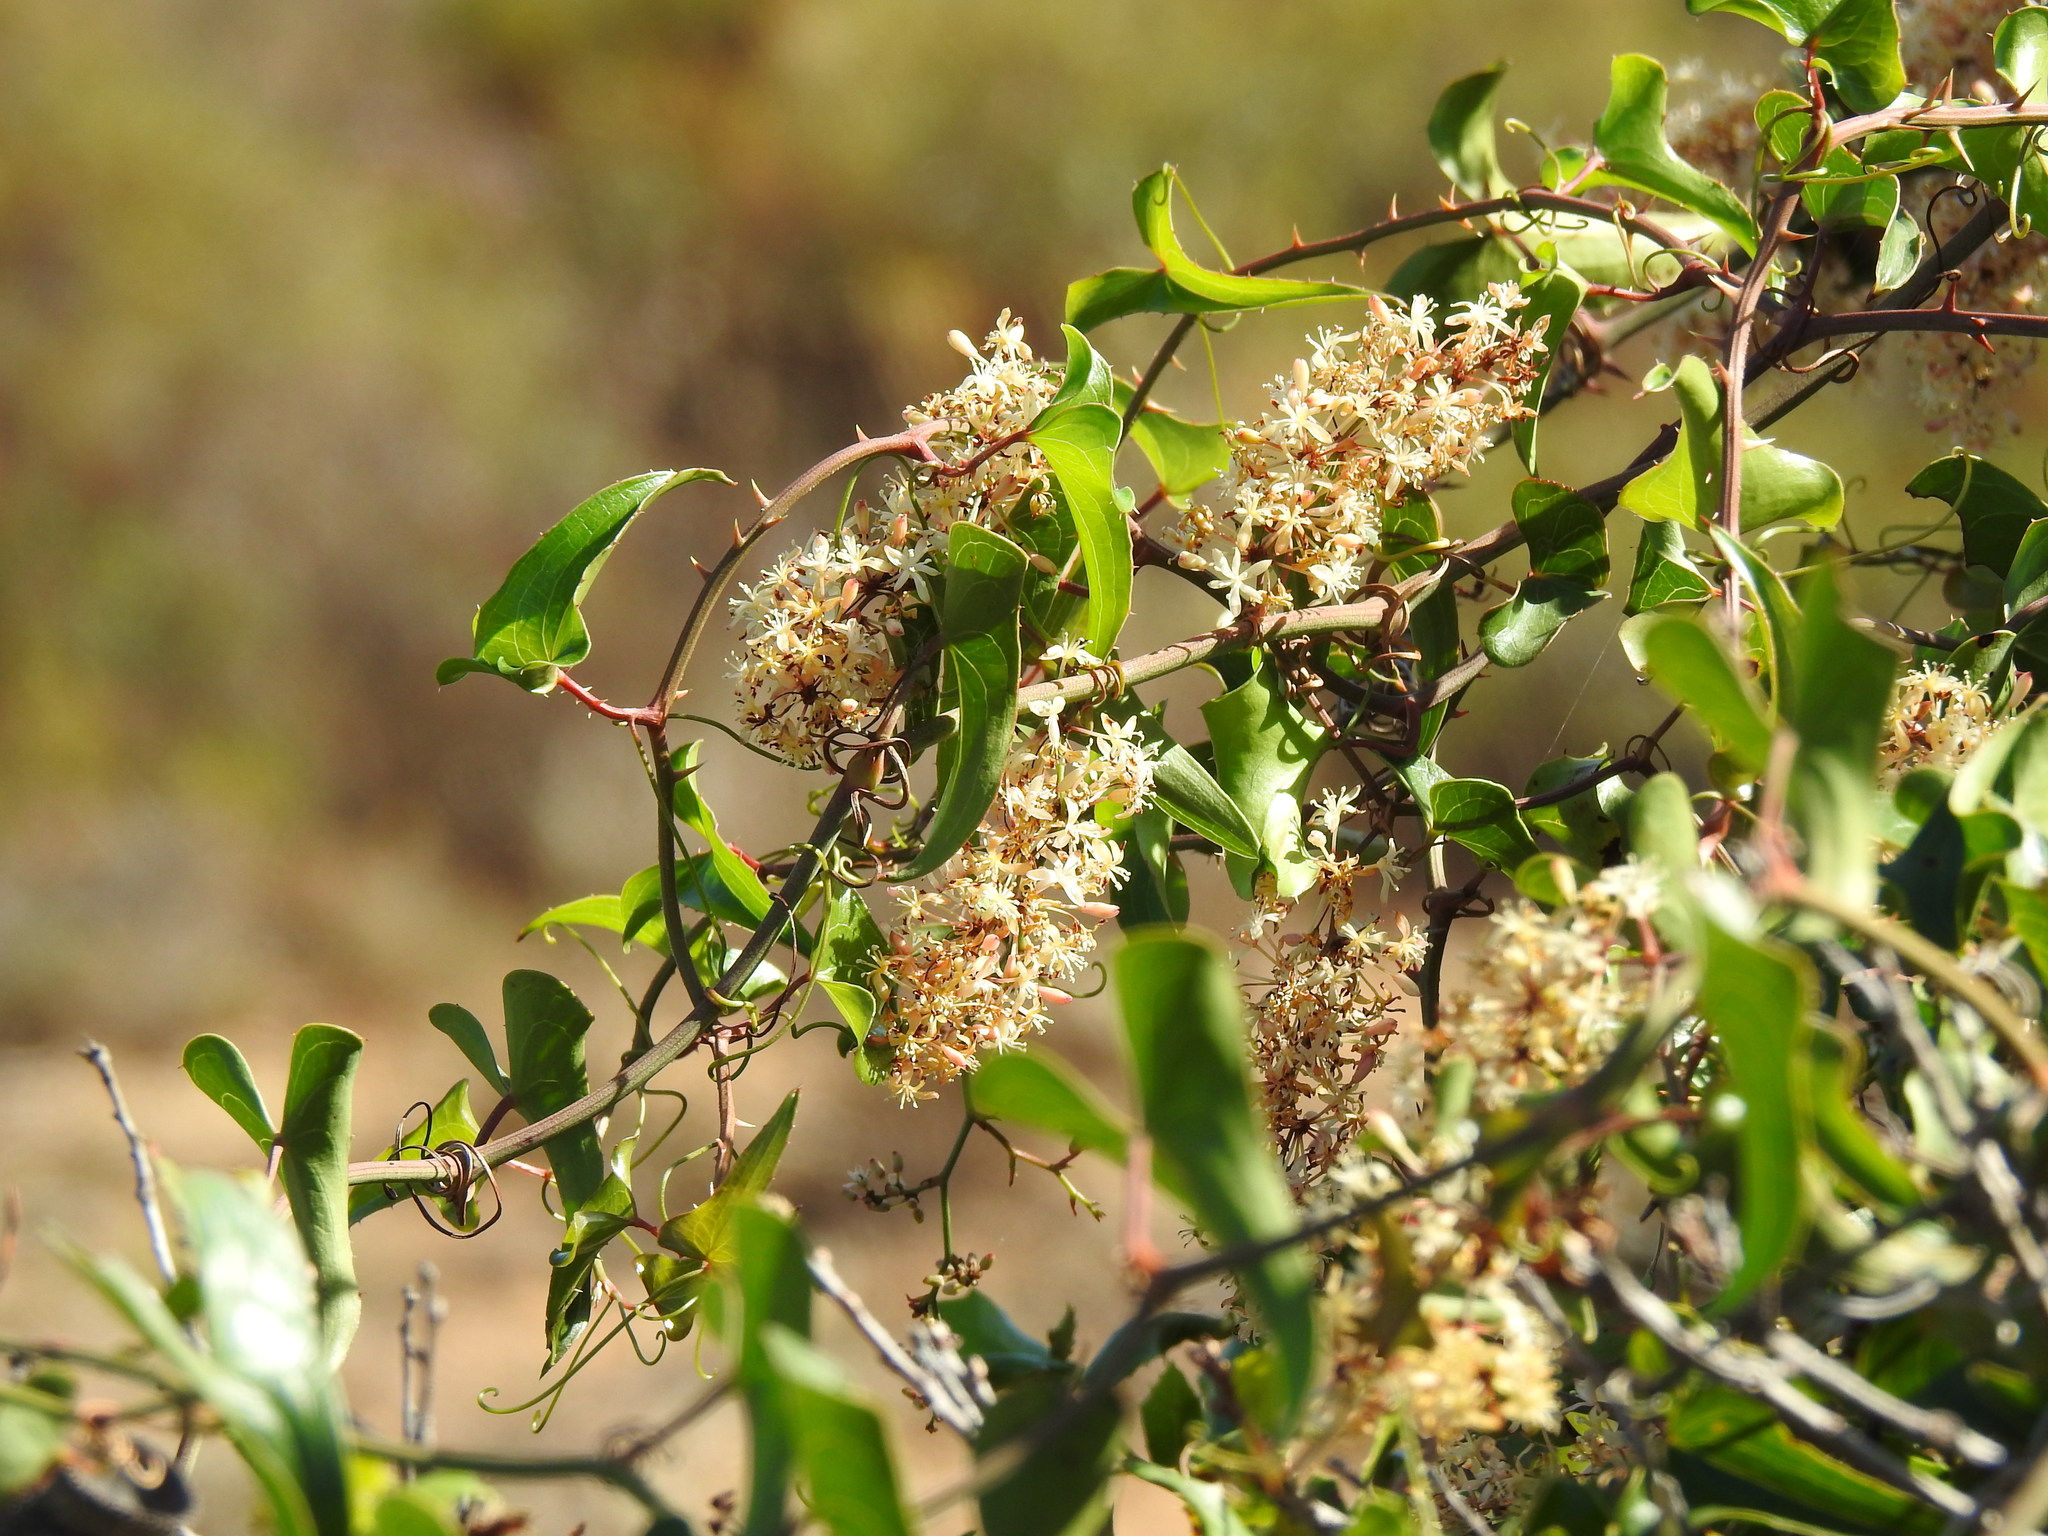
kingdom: Plantae
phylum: Tracheophyta
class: Liliopsida
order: Liliales
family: Smilacaceae
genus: Smilax
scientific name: Smilax aspera
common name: Common smilax
